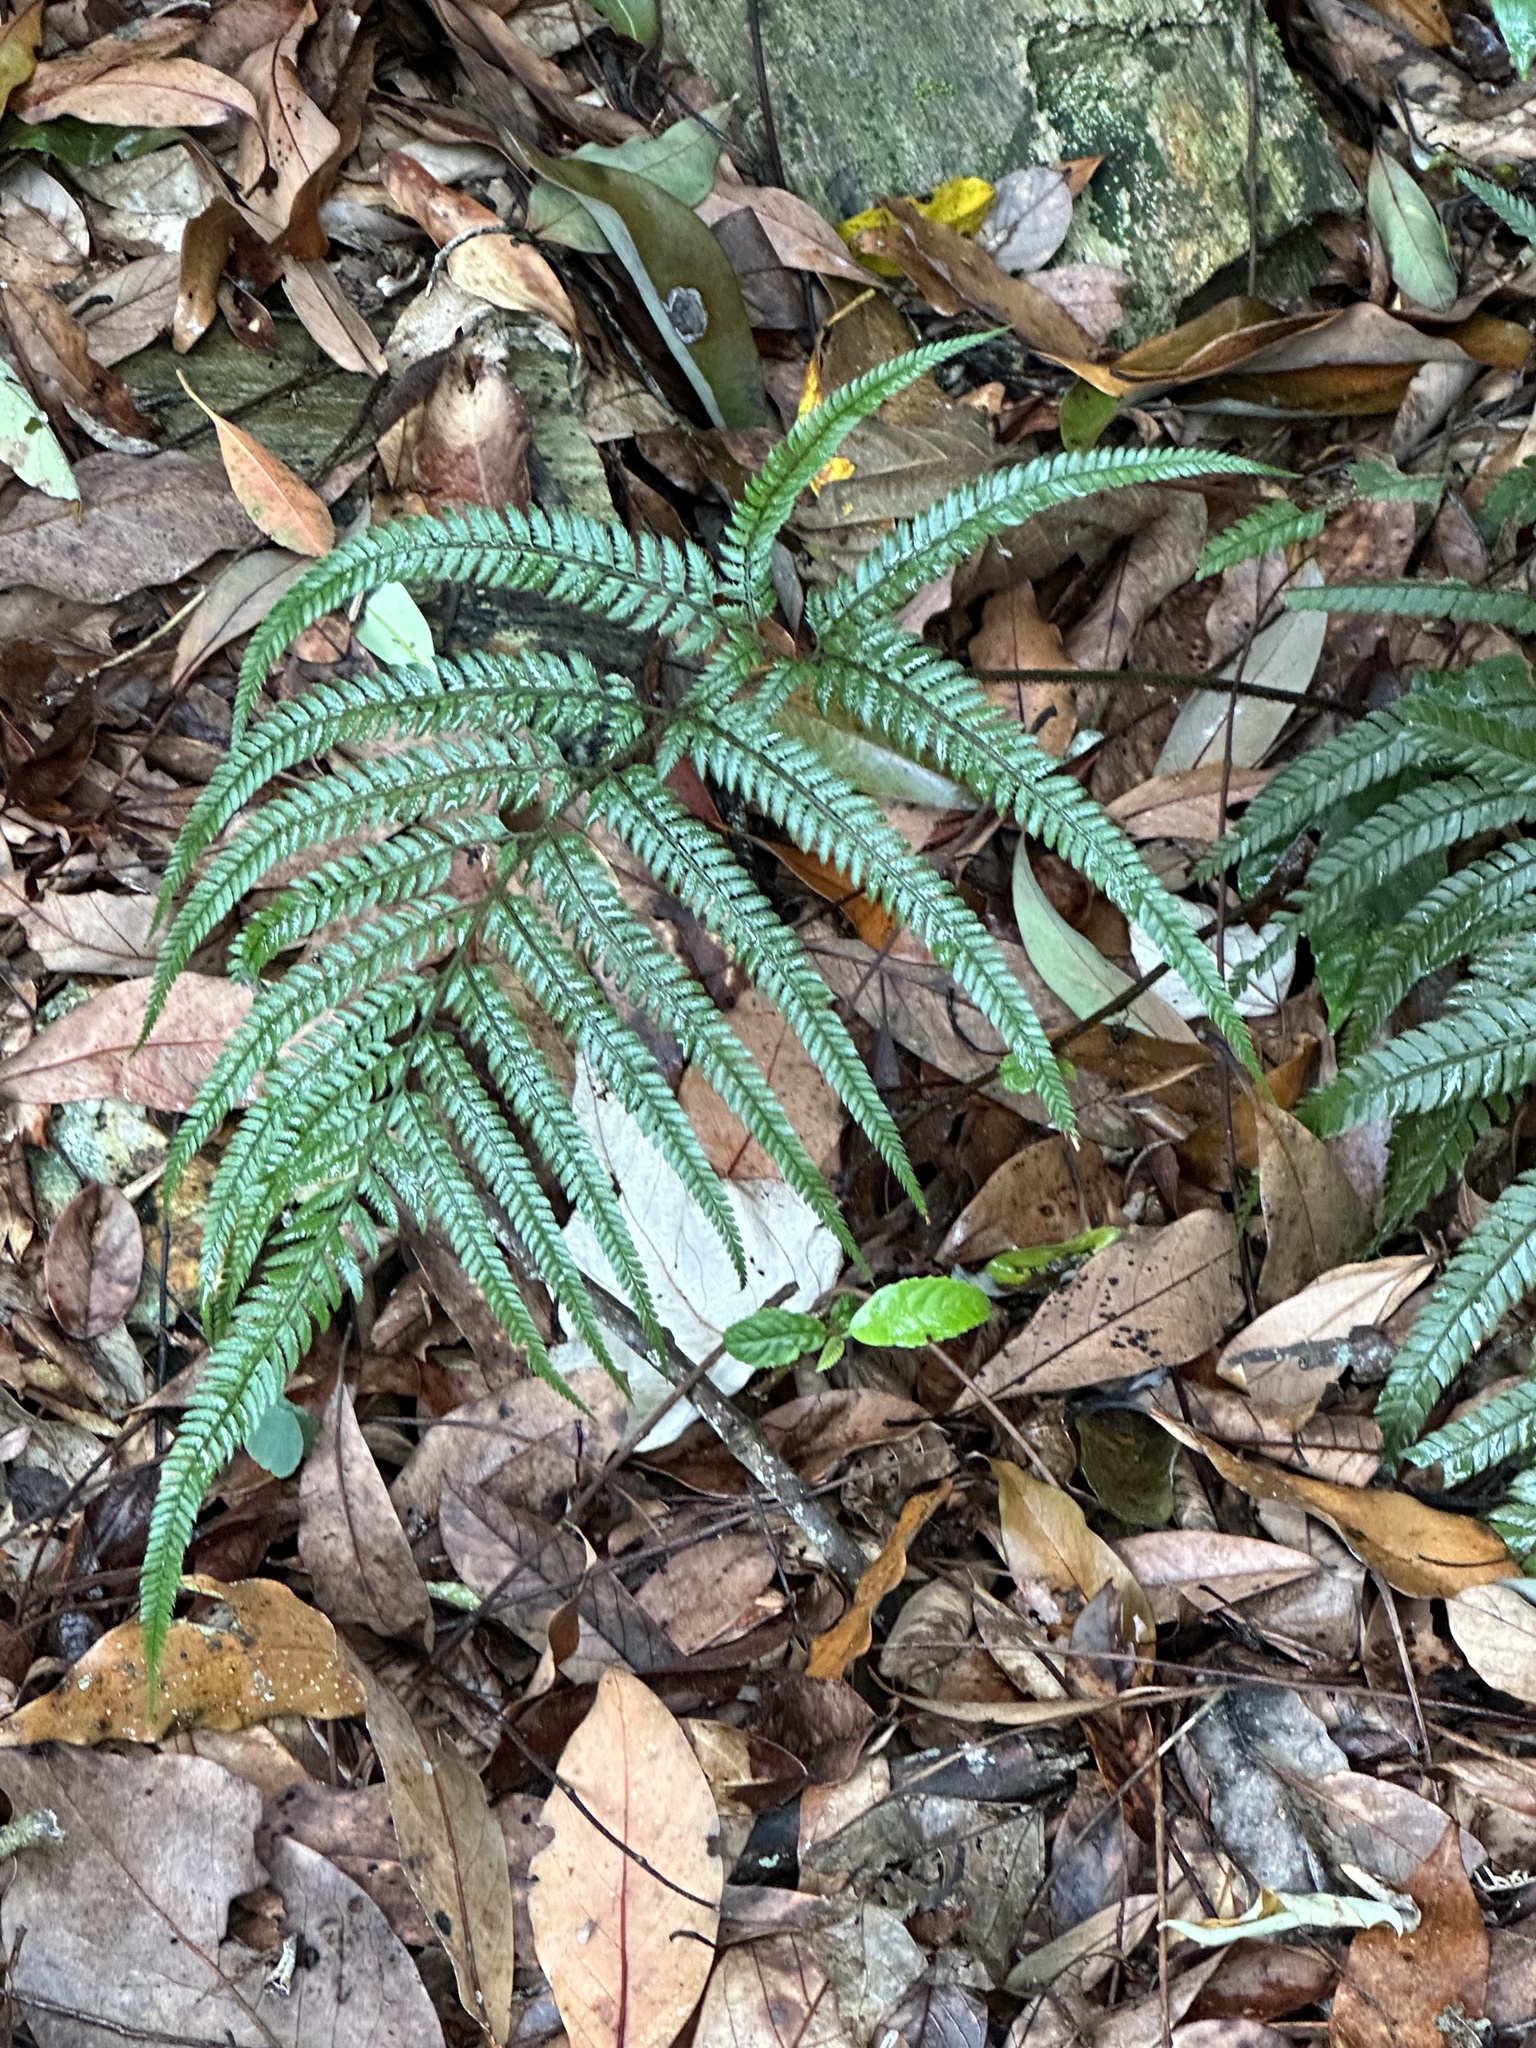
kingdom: Plantae
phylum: Tracheophyta
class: Polypodiopsida
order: Polypodiales
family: Dryopteridaceae
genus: Arachniodes
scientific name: Arachniodes aristata
